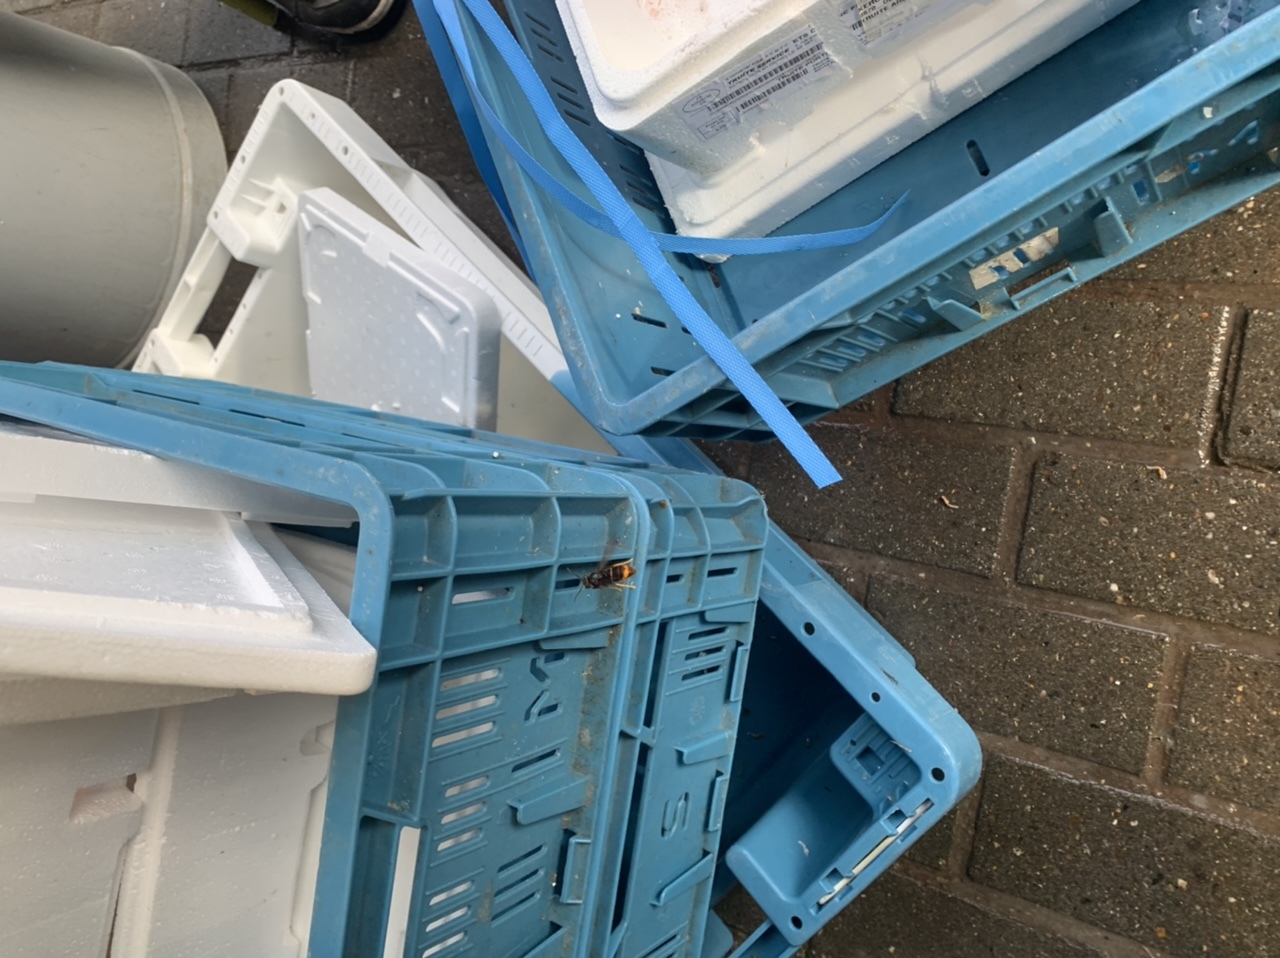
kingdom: Animalia
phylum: Arthropoda
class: Insecta
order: Hymenoptera
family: Vespidae
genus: Vespa
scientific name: Vespa velutina
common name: Asian hornet
